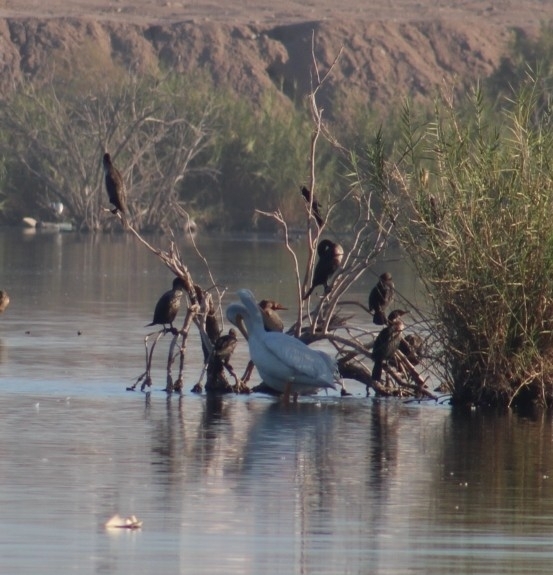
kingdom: Animalia
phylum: Chordata
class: Aves
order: Pelecaniformes
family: Pelecanidae
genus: Pelecanus
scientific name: Pelecanus erythrorhynchos
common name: American white pelican
